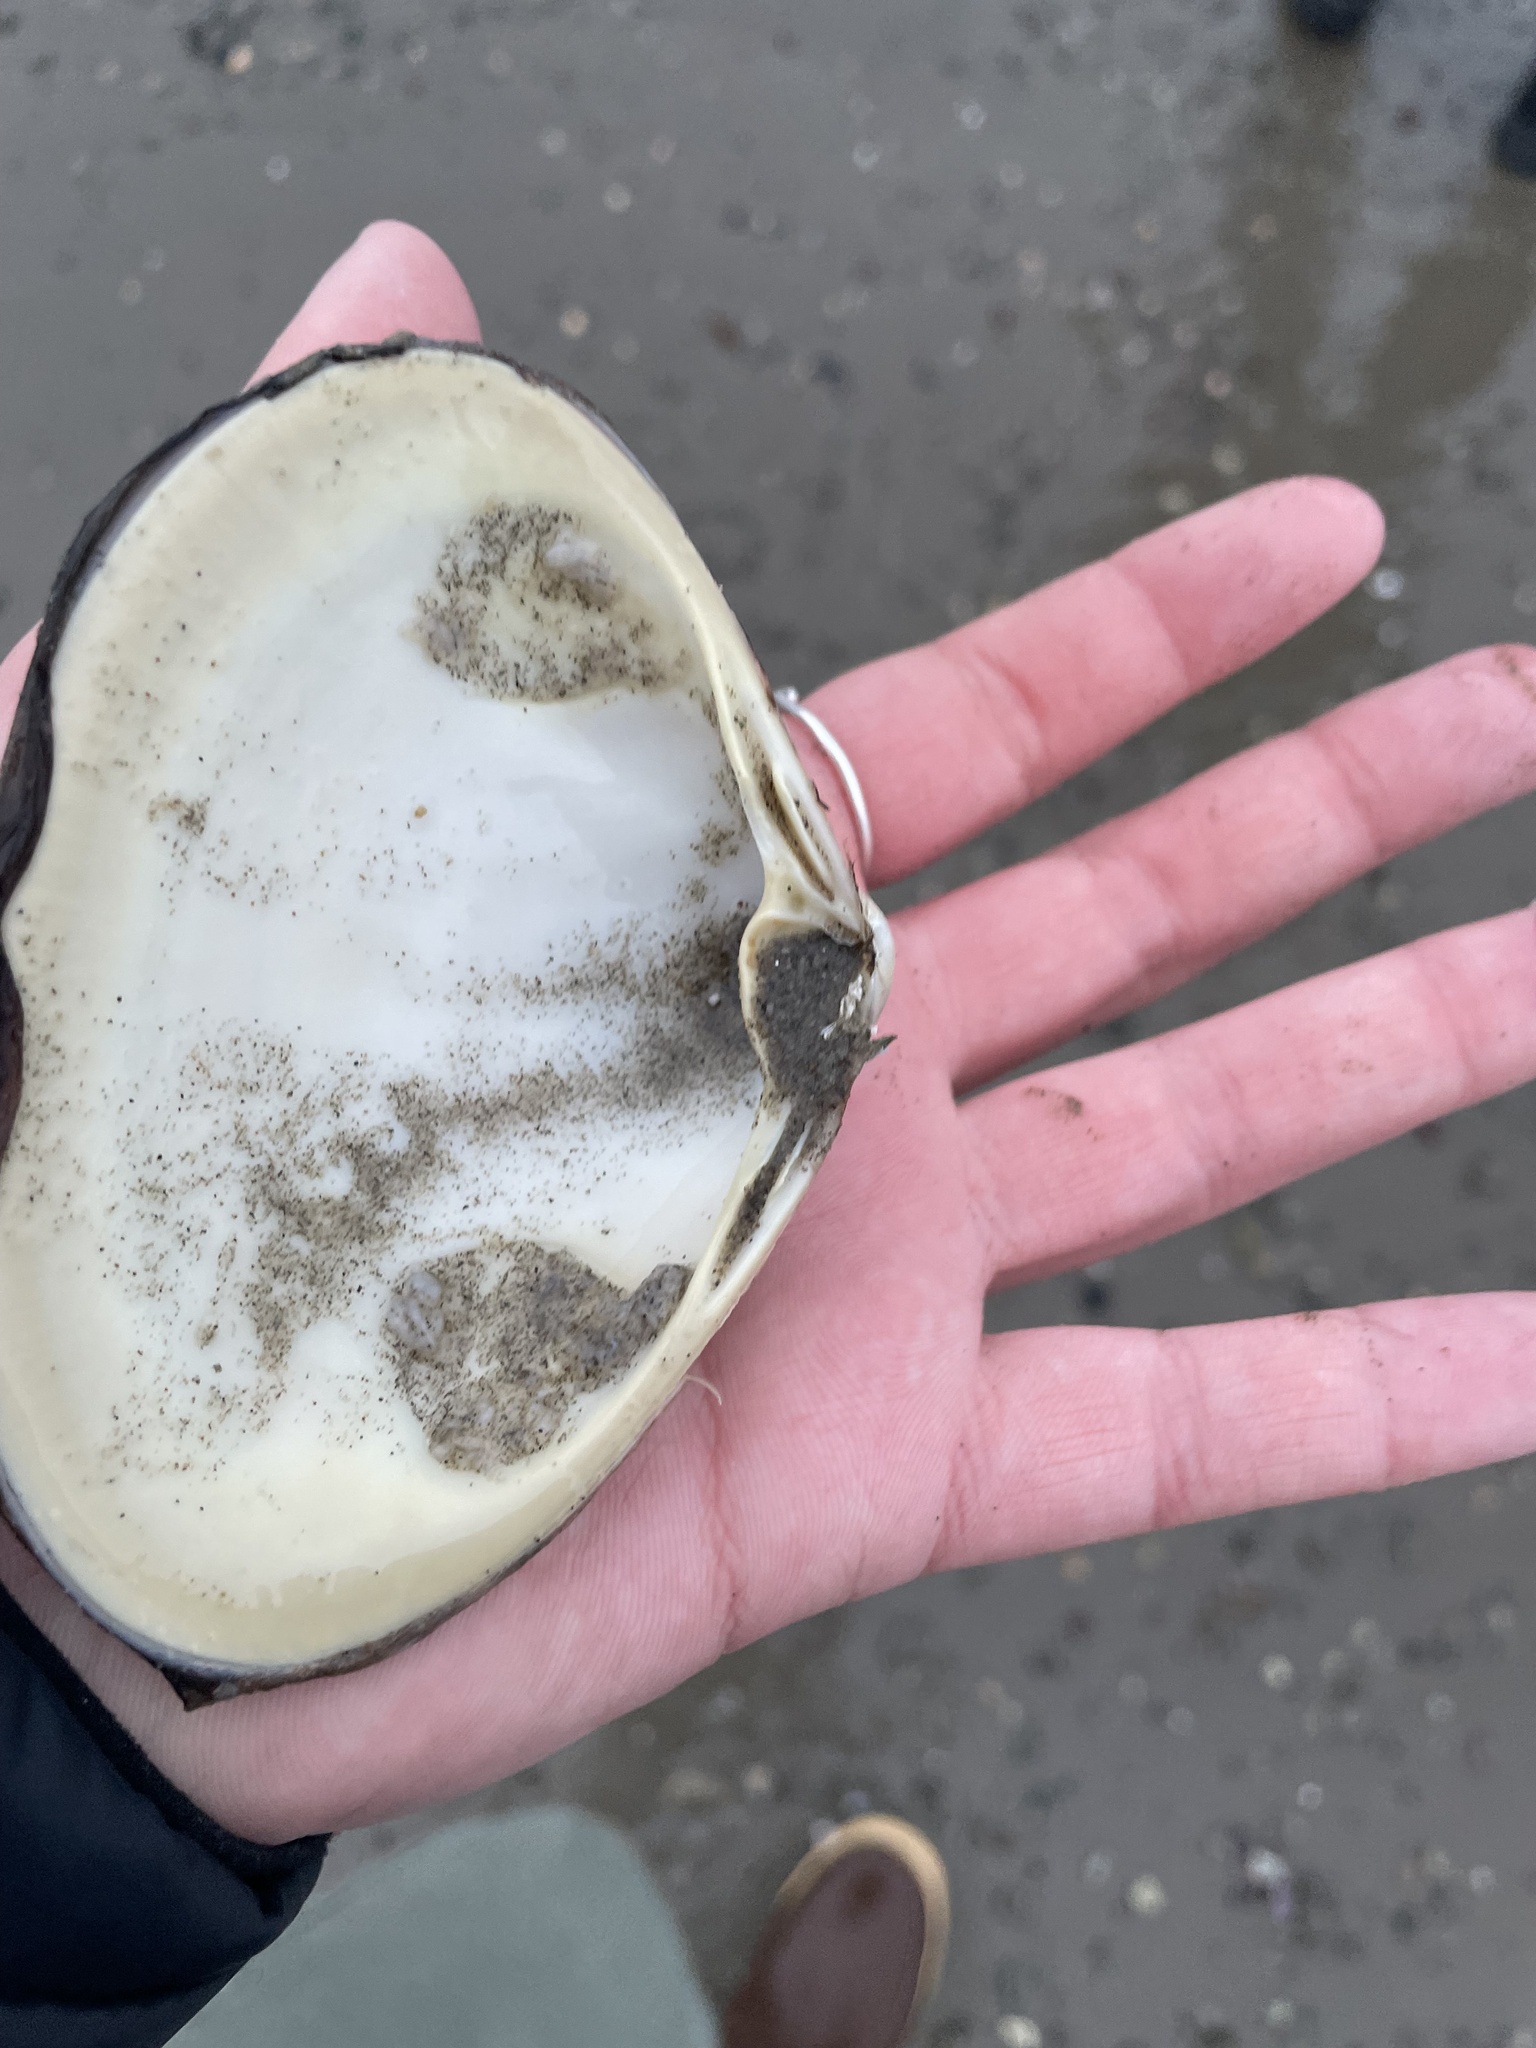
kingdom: Animalia
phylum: Mollusca
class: Bivalvia
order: Venerida
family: Mactridae
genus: Spisula
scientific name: Spisula solidissima
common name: Atlantic surf clam
